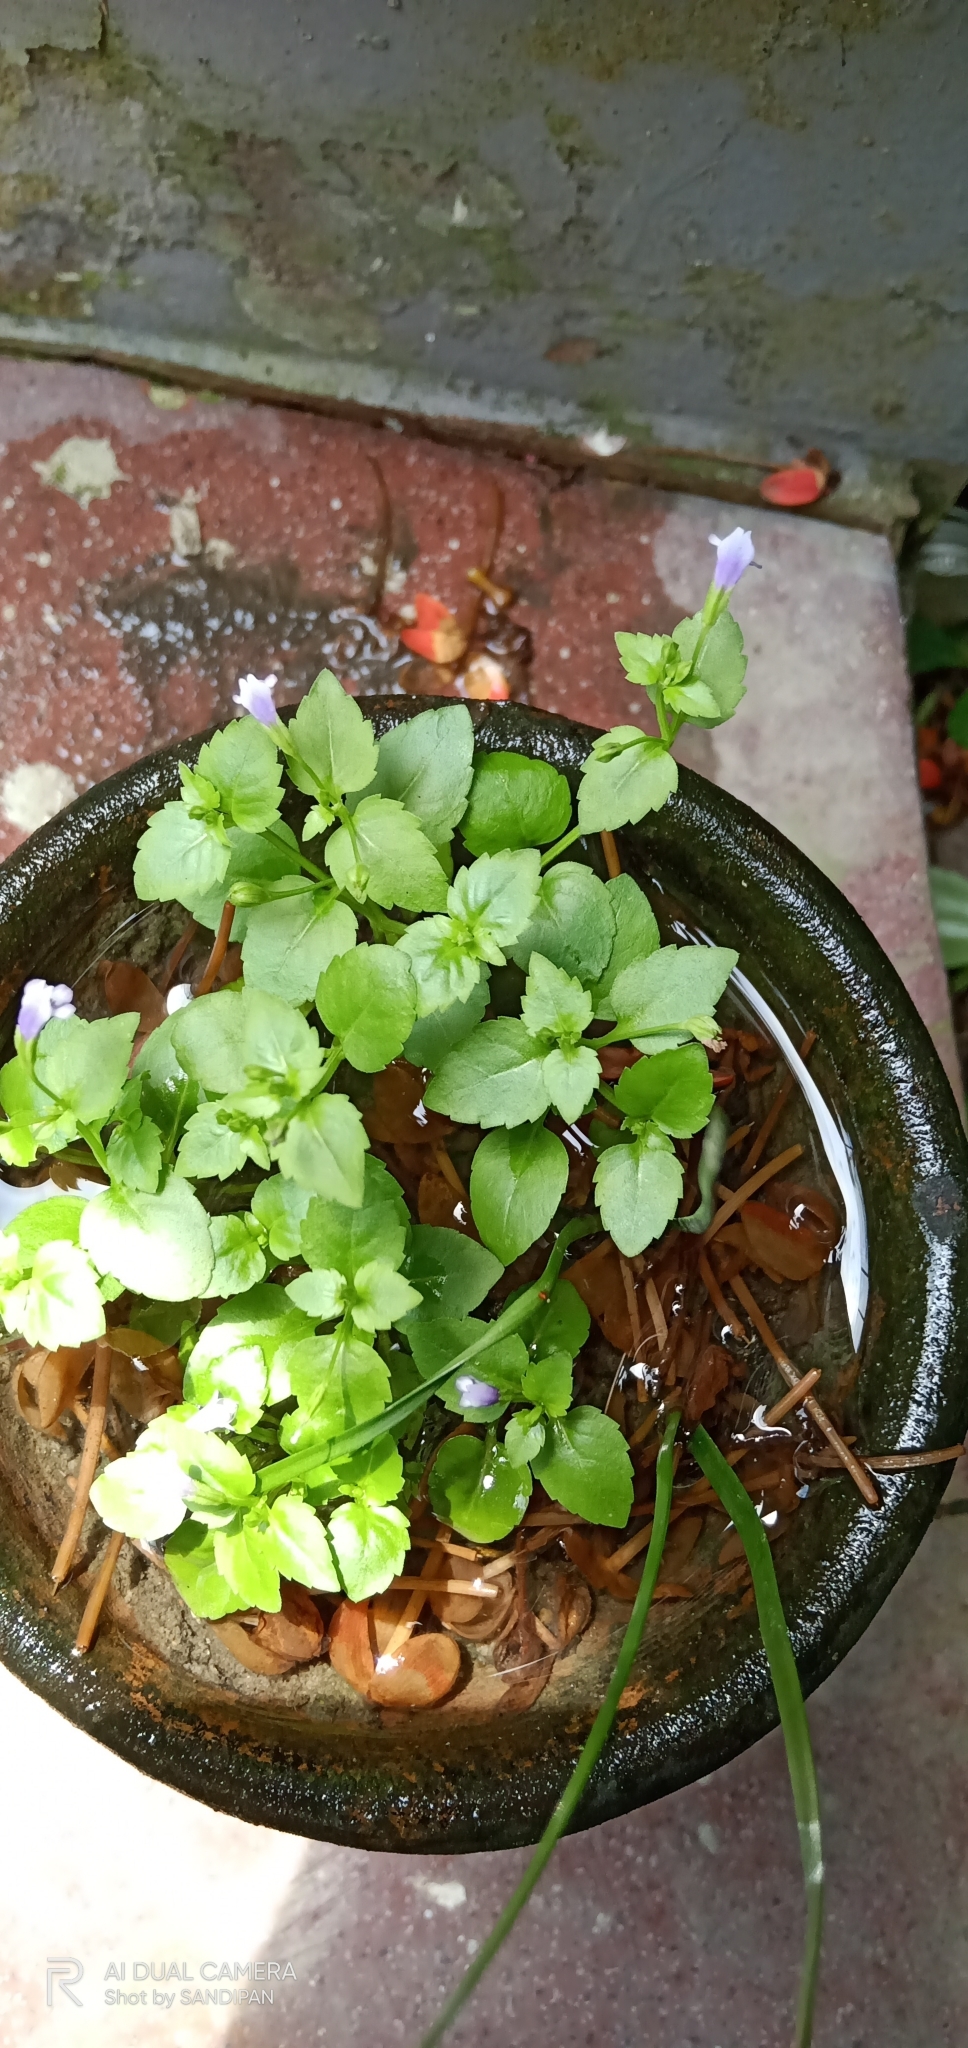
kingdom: Plantae
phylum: Tracheophyta
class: Magnoliopsida
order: Lamiales
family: Linderniaceae
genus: Torenia
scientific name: Torenia crustacea
